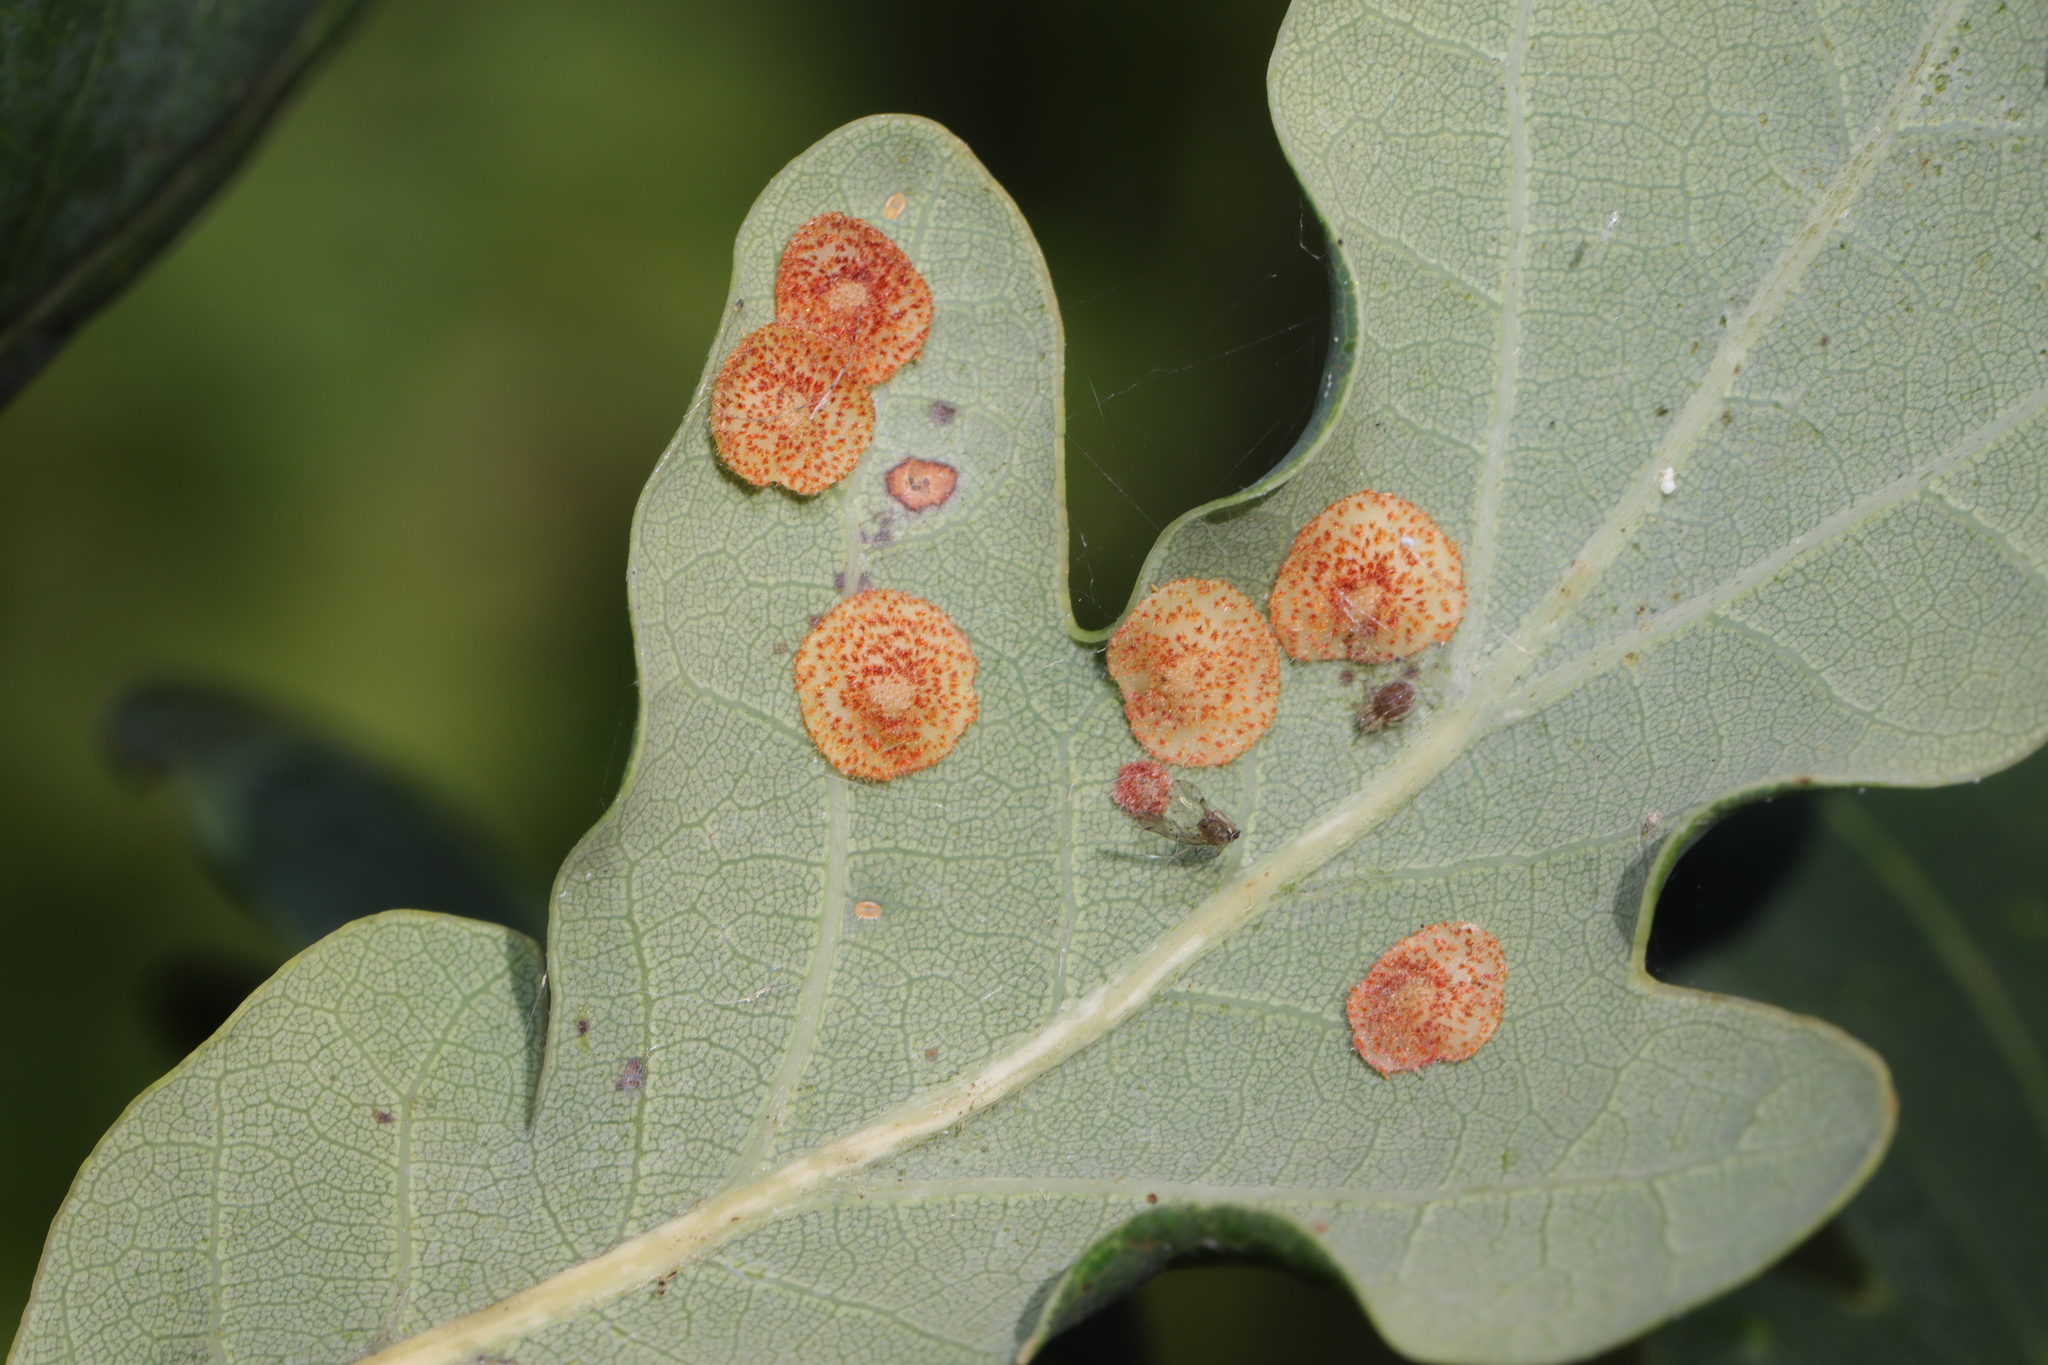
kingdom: Animalia
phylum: Arthropoda
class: Insecta
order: Hymenoptera
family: Cynipidae
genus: Neuroterus
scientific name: Neuroterus quercusbaccarum
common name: Common spangle gall
